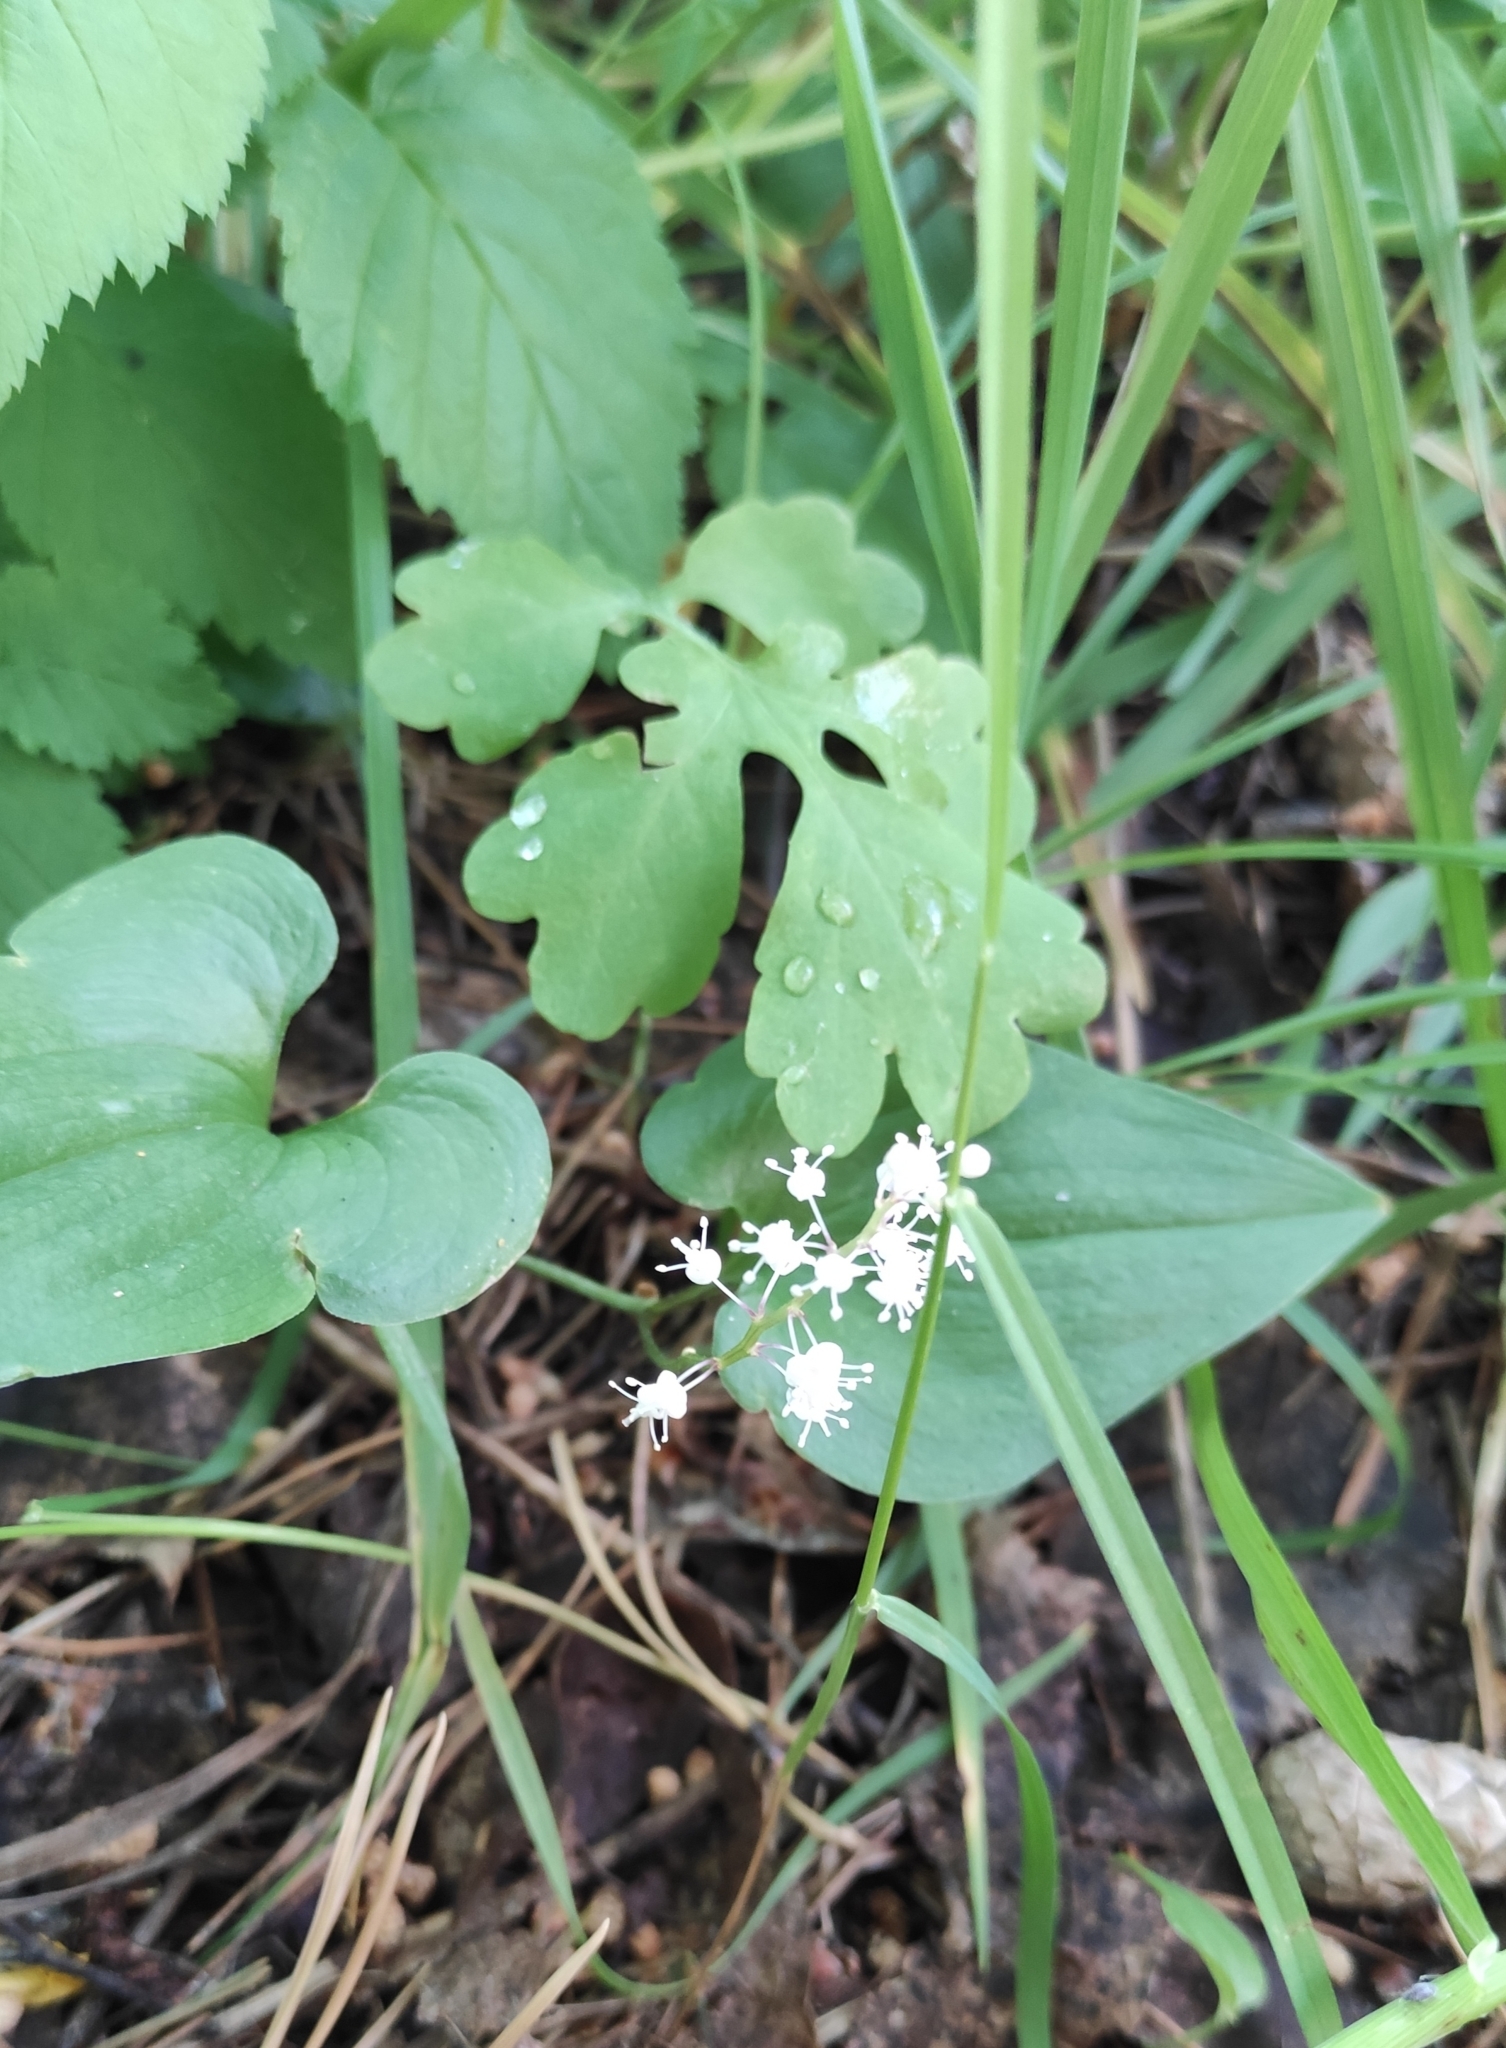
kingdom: Plantae
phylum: Tracheophyta
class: Liliopsida
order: Asparagales
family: Asparagaceae
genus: Maianthemum
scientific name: Maianthemum bifolium
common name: May lily
